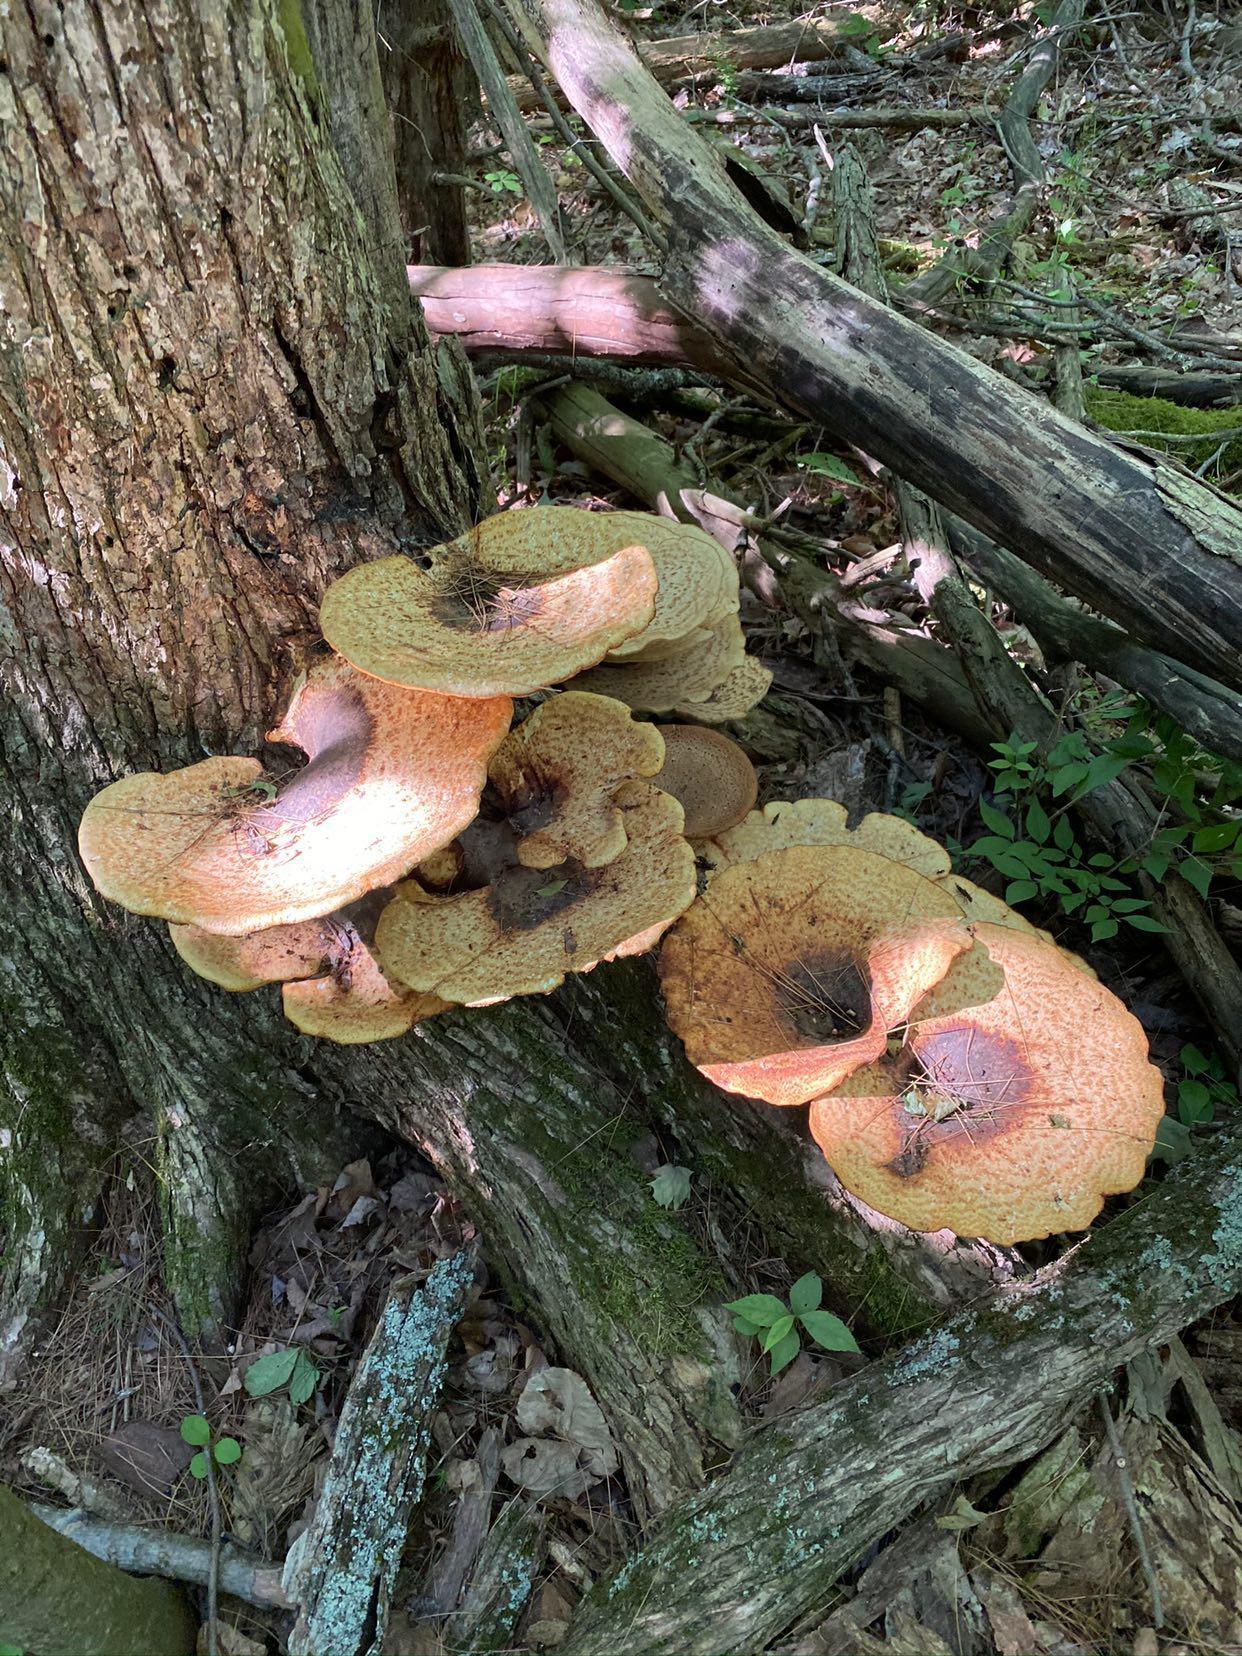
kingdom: Fungi
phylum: Basidiomycota
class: Agaricomycetes
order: Polyporales
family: Polyporaceae
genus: Cerioporus
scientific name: Cerioporus squamosus
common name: Dryad's saddle
